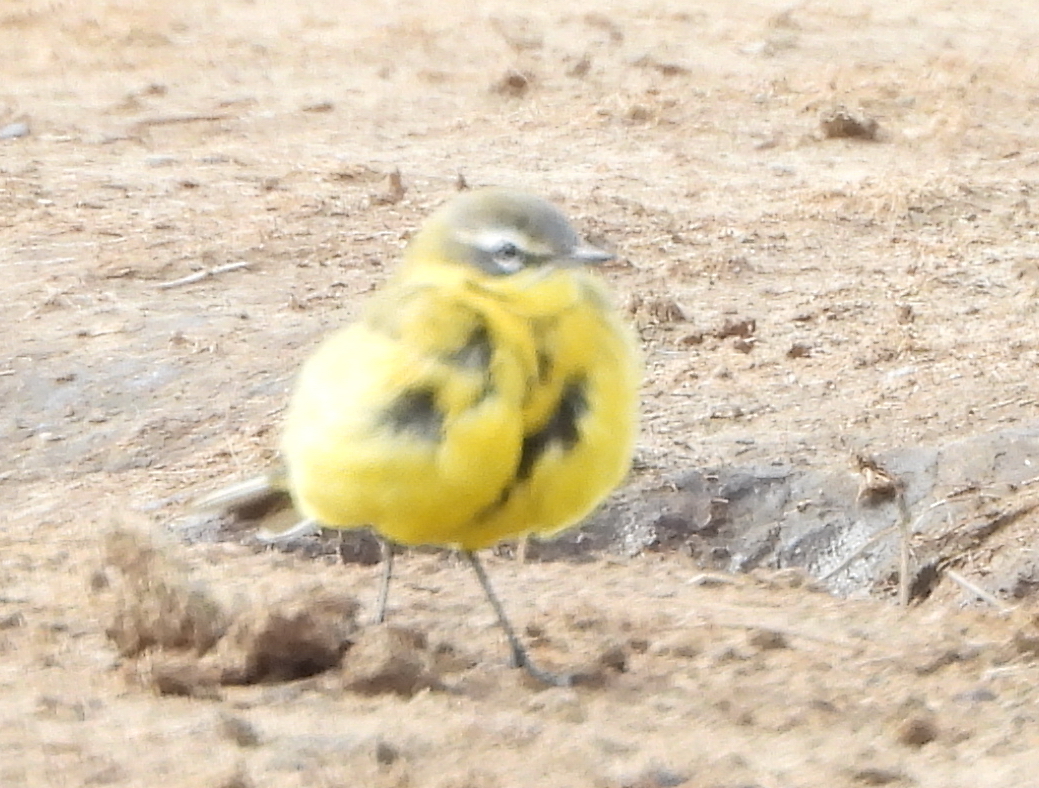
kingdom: Animalia
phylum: Chordata
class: Aves
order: Passeriformes
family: Motacillidae
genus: Motacilla
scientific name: Motacilla flava
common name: Western yellow wagtail
